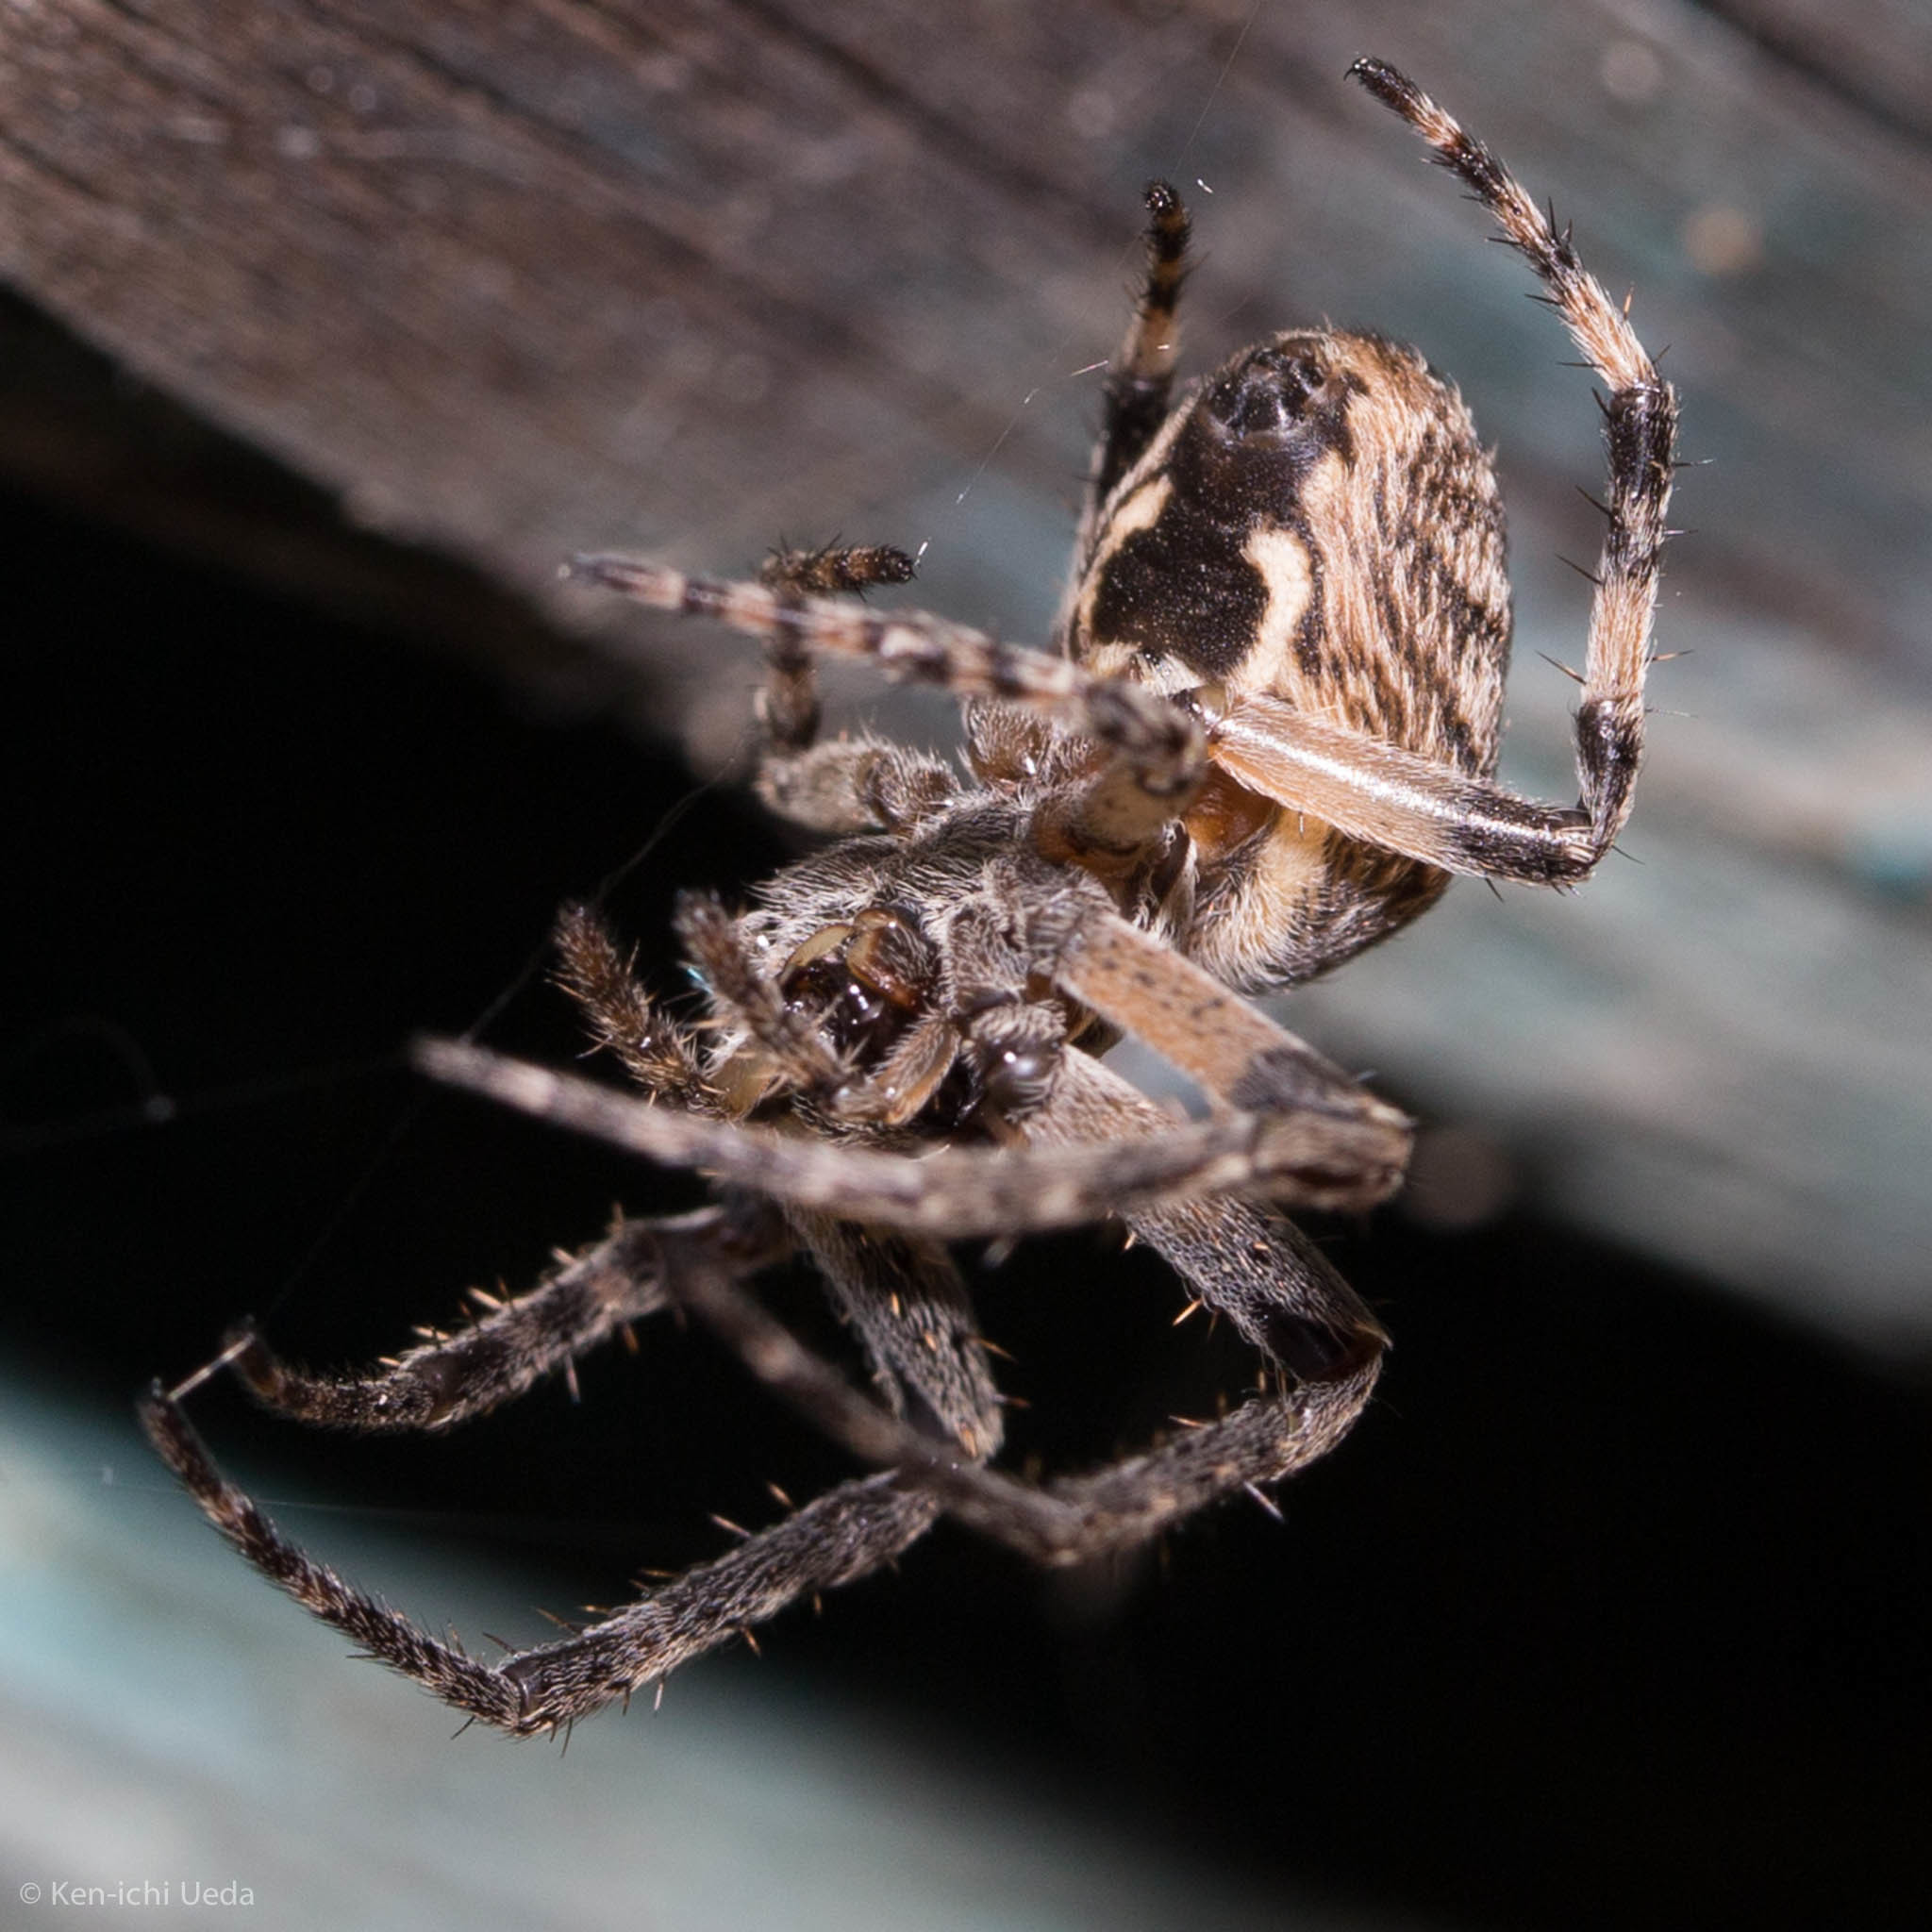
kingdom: Animalia
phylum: Arthropoda
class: Arachnida
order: Araneae
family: Araneidae
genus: Larinioides
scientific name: Larinioides sclopetarius
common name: Bridge orbweaver
